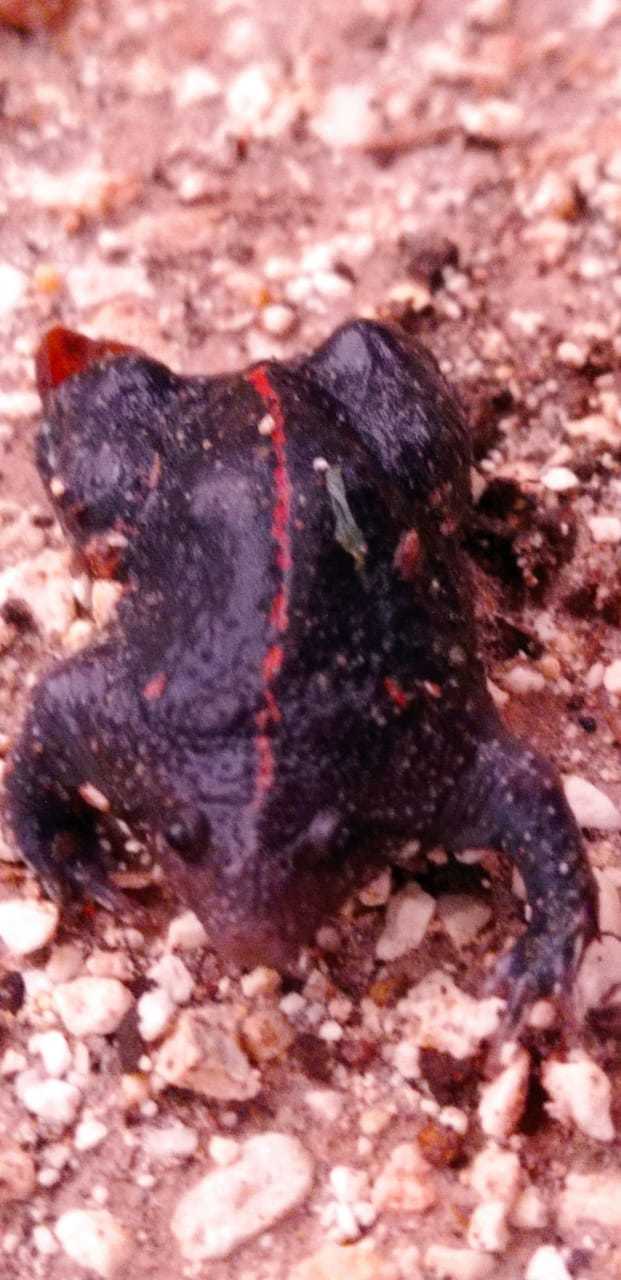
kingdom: Animalia
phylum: Chordata
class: Amphibia
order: Anura
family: Rhinophrynidae
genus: Rhinophrynus
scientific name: Rhinophrynus dorsalis
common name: Mexican burrowing toad
